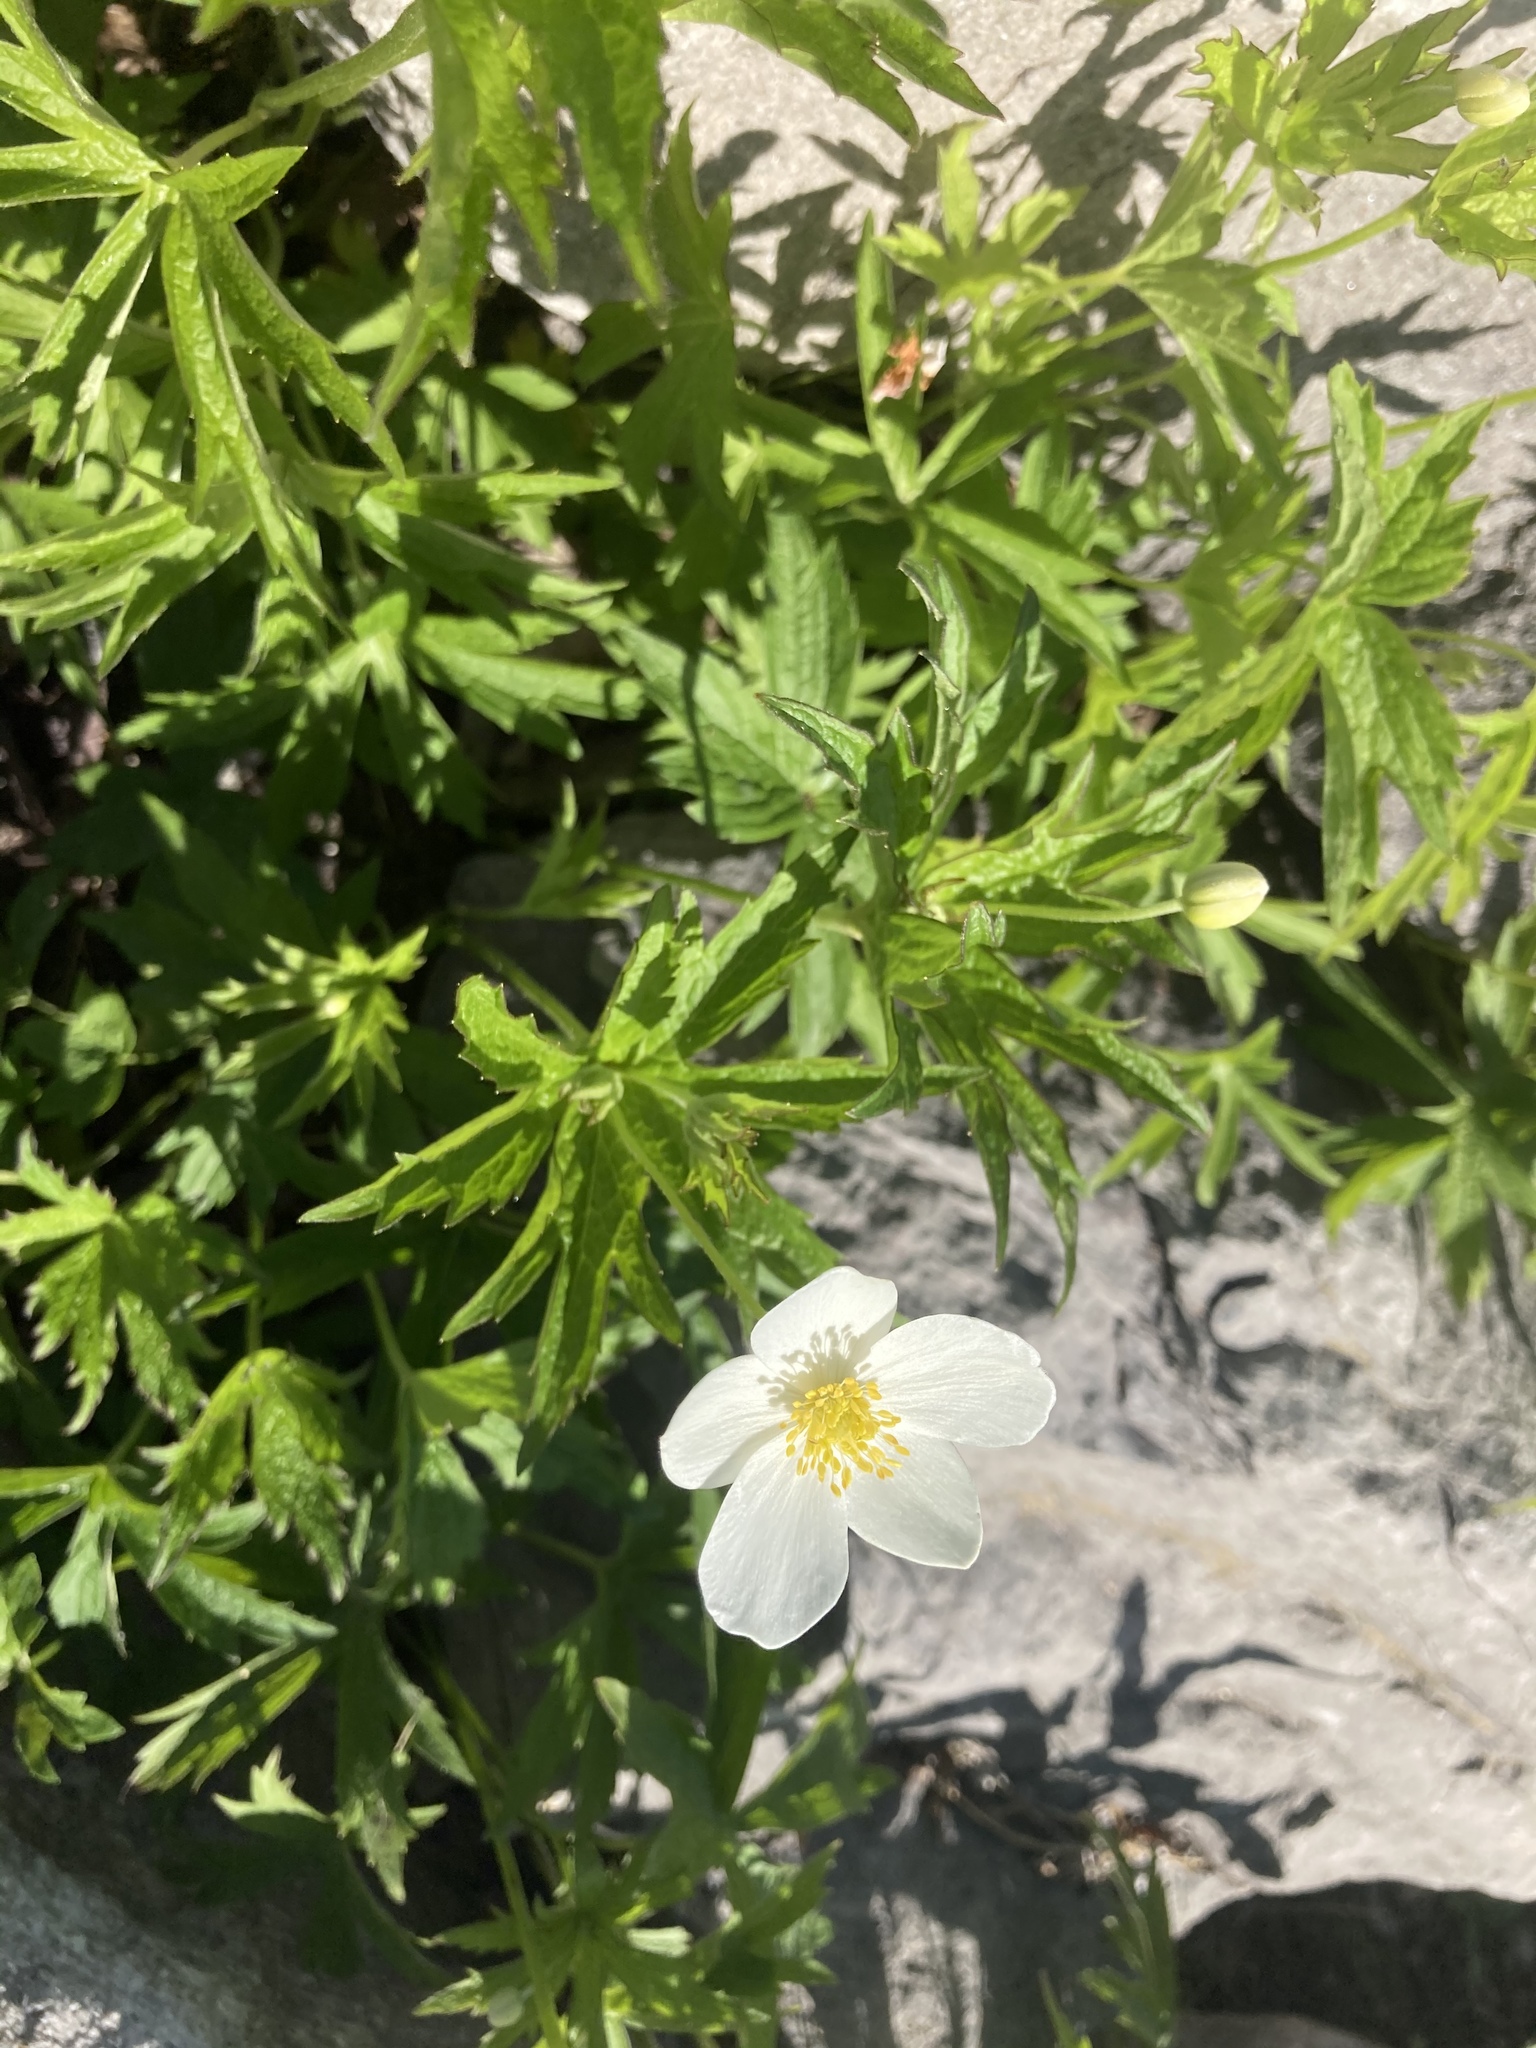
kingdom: Plantae
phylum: Tracheophyta
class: Magnoliopsida
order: Ranunculales
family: Ranunculaceae
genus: Anemonastrum
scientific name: Anemonastrum canadense
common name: Canada anemone
